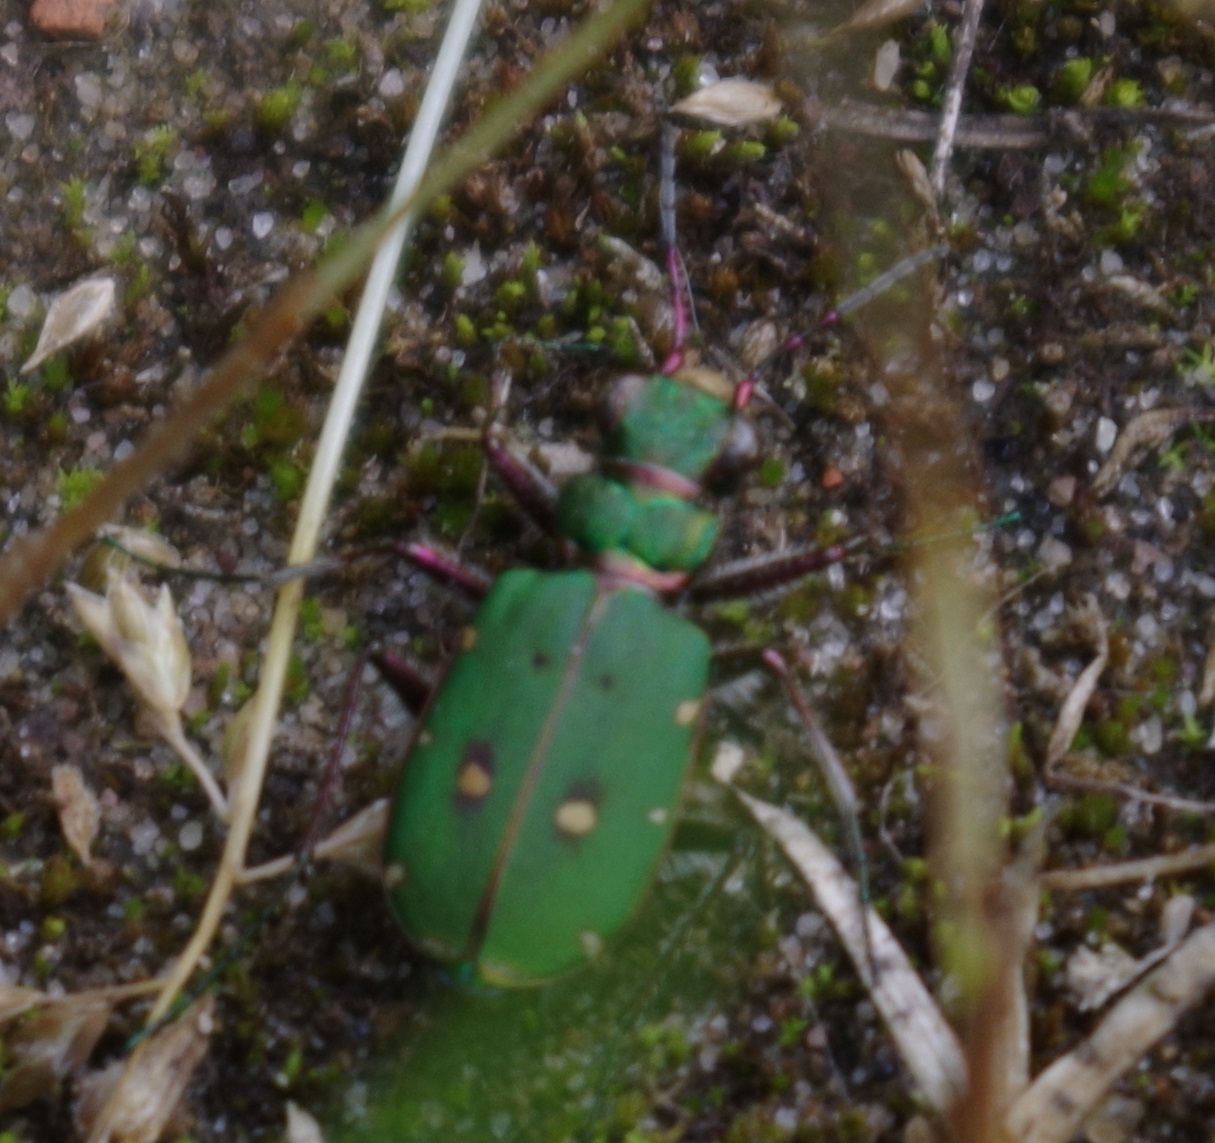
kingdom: Animalia
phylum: Arthropoda
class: Insecta
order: Coleoptera
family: Carabidae
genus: Cicindela
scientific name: Cicindela campestris
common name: Common tiger beetle
